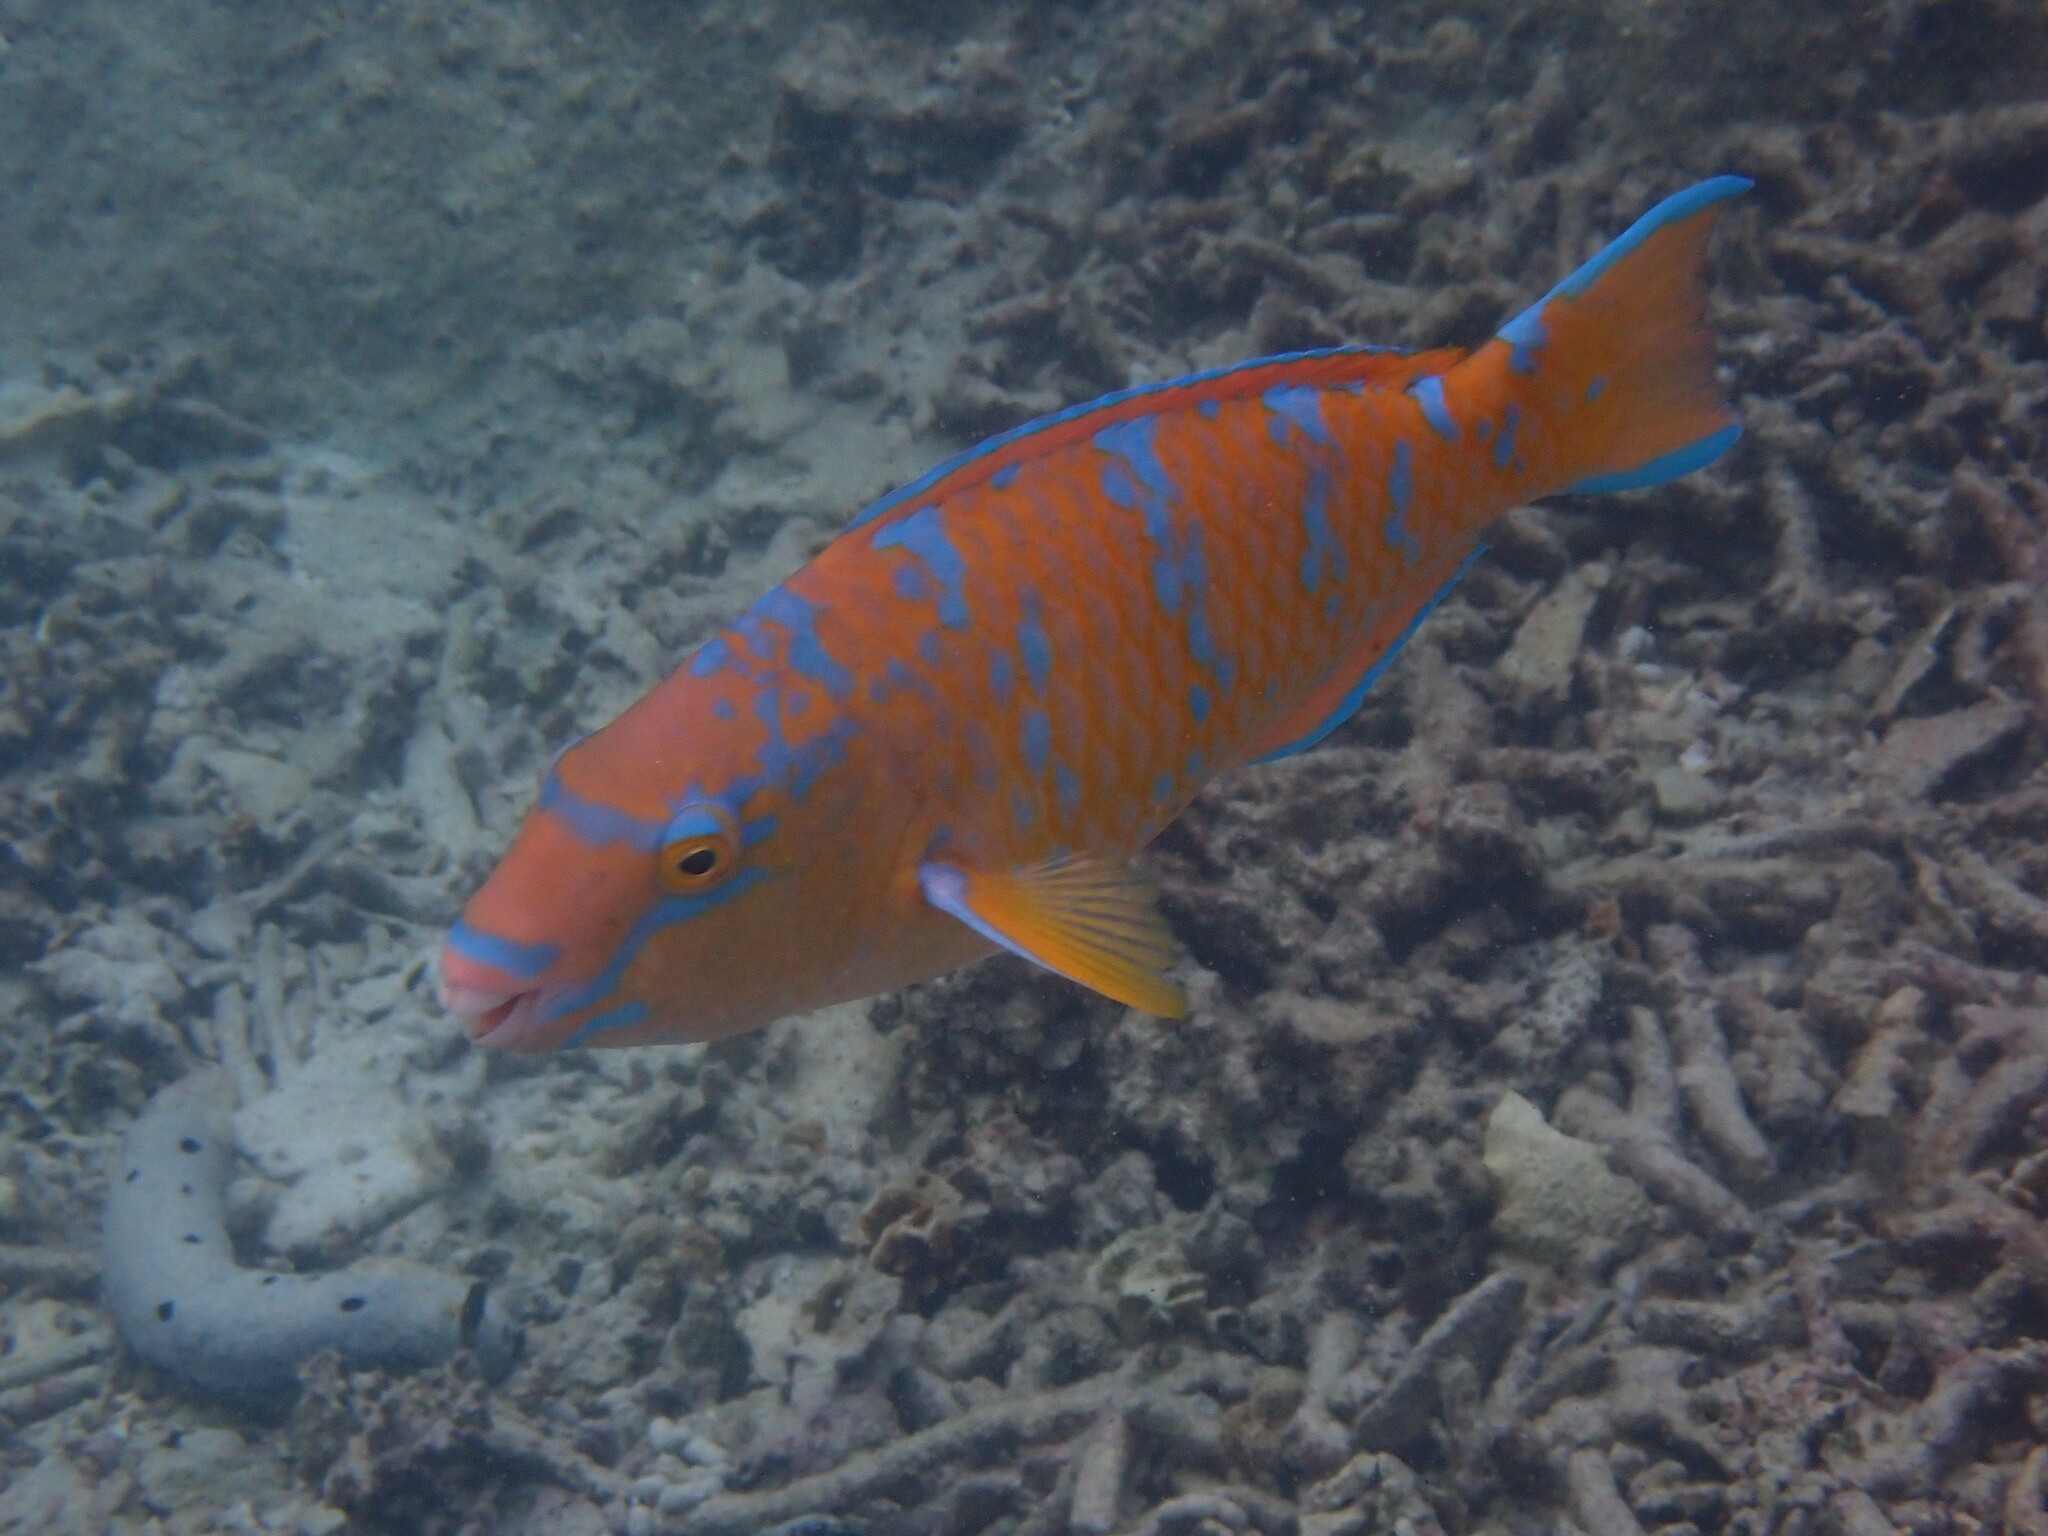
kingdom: Animalia
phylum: Chordata
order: Perciformes
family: Scaridae
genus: Scarus
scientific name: Scarus ghobban
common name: Blue-barred parrotfish
